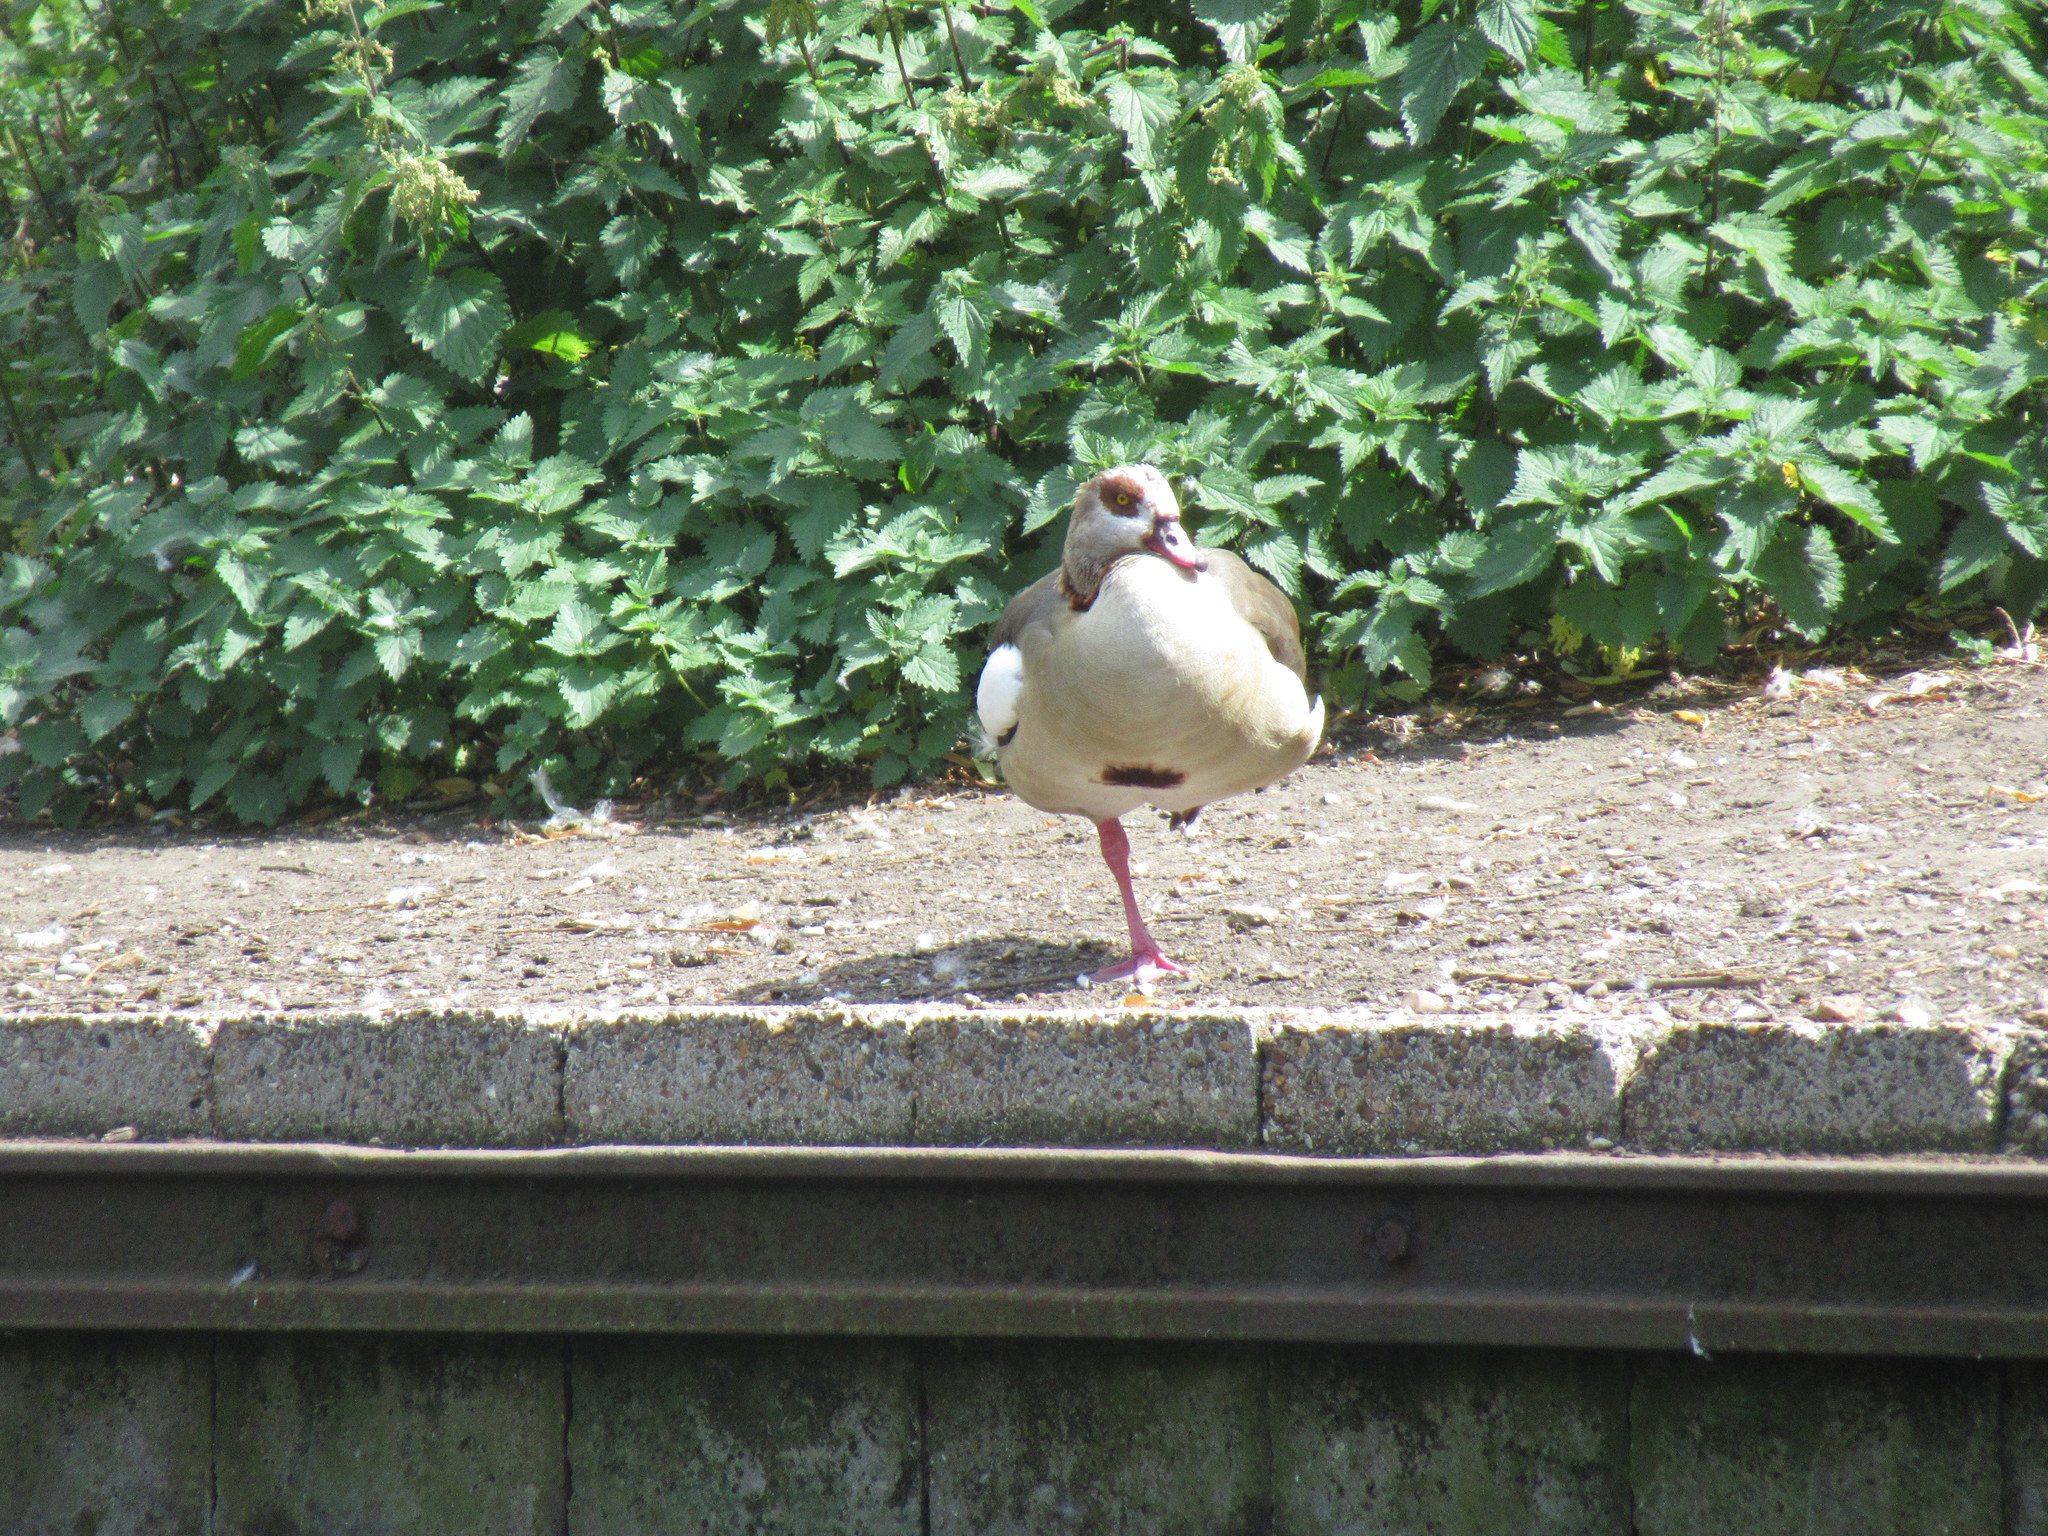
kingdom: Animalia
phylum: Chordata
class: Aves
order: Anseriformes
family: Anatidae
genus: Alopochen
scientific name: Alopochen aegyptiaca
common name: Egyptian goose
